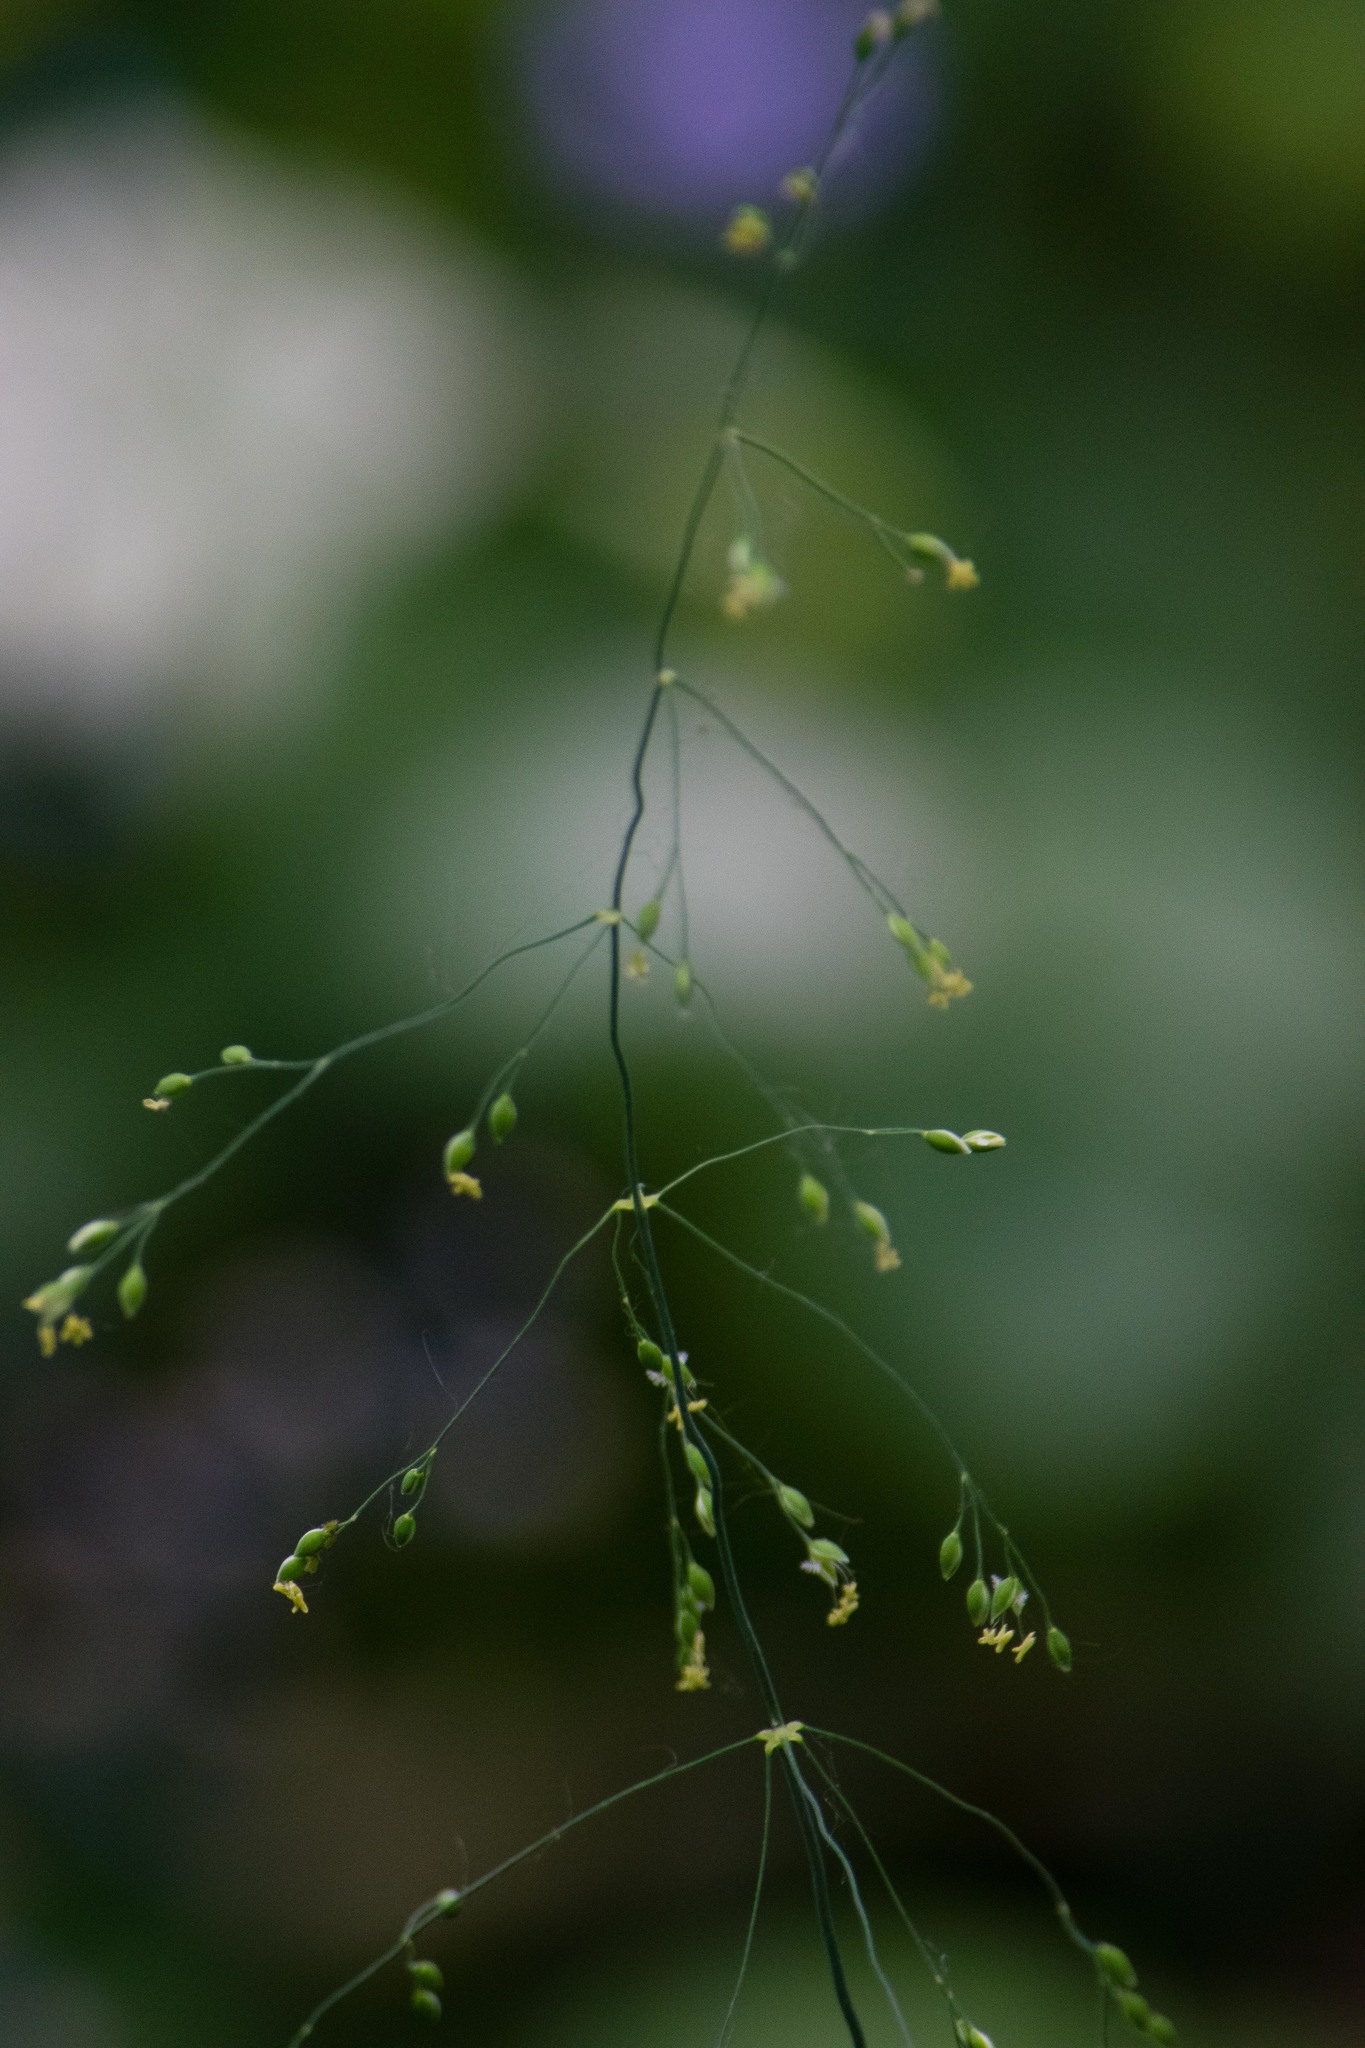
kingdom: Plantae
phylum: Tracheophyta
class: Liliopsida
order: Poales
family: Poaceae
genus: Milium
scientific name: Milium effusum
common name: Wood millet
